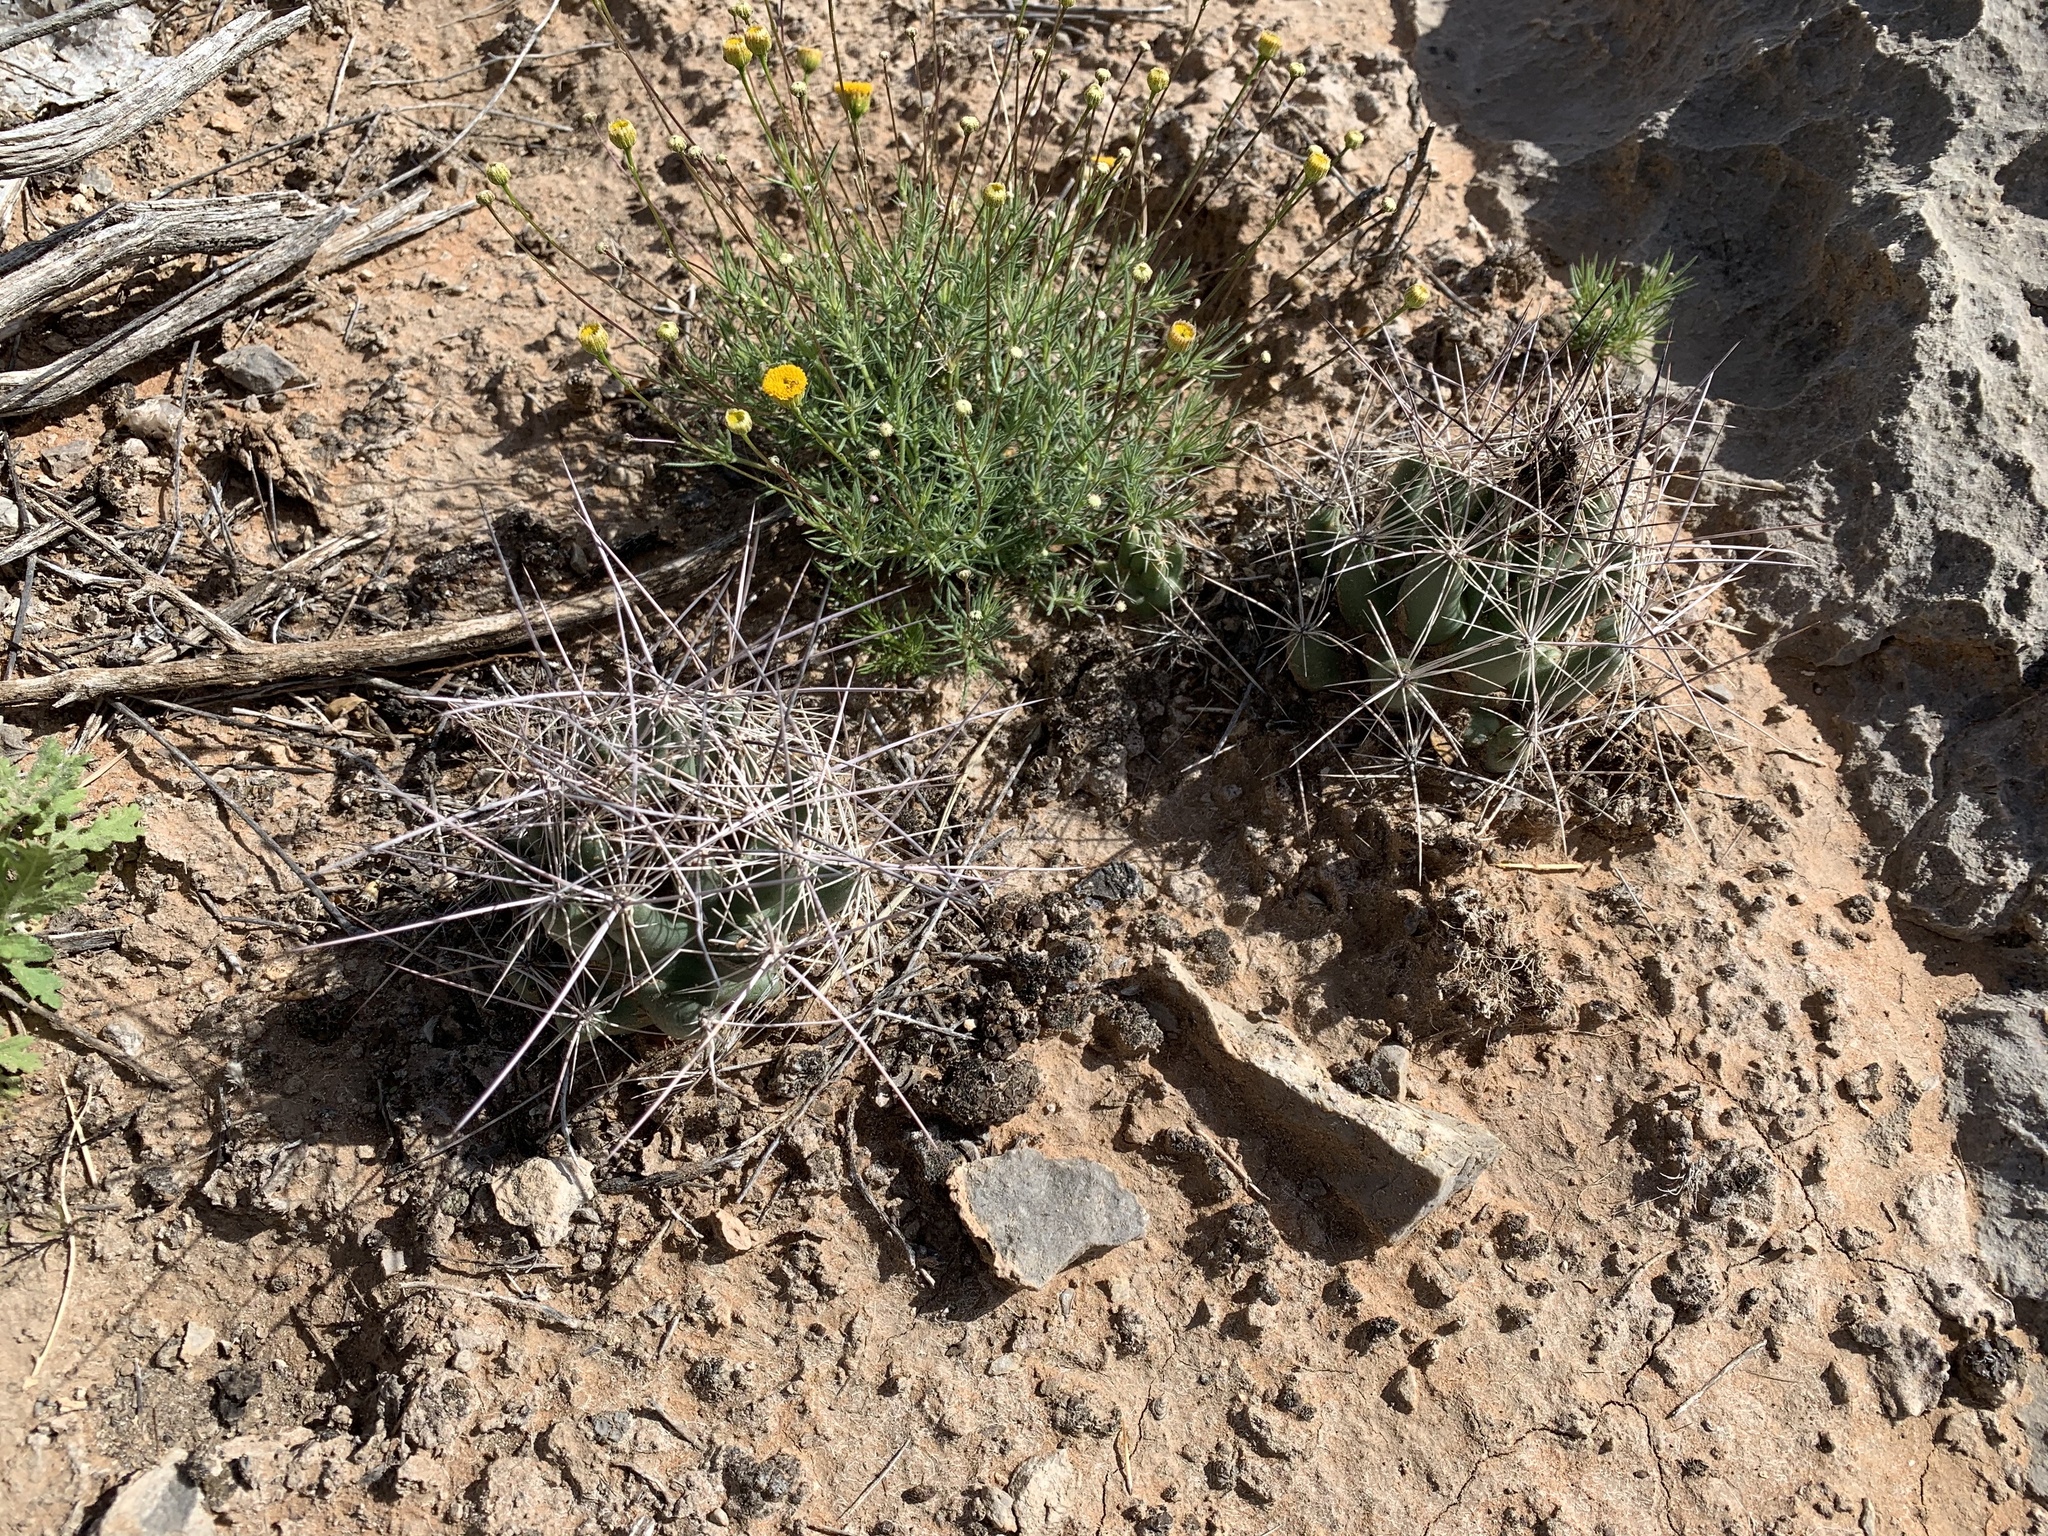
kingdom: Plantae
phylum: Tracheophyta
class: Magnoliopsida
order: Caryophyllales
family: Cactaceae
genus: Coryphantha
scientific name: Coryphantha macromeris
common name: Nipple beehive cactus
